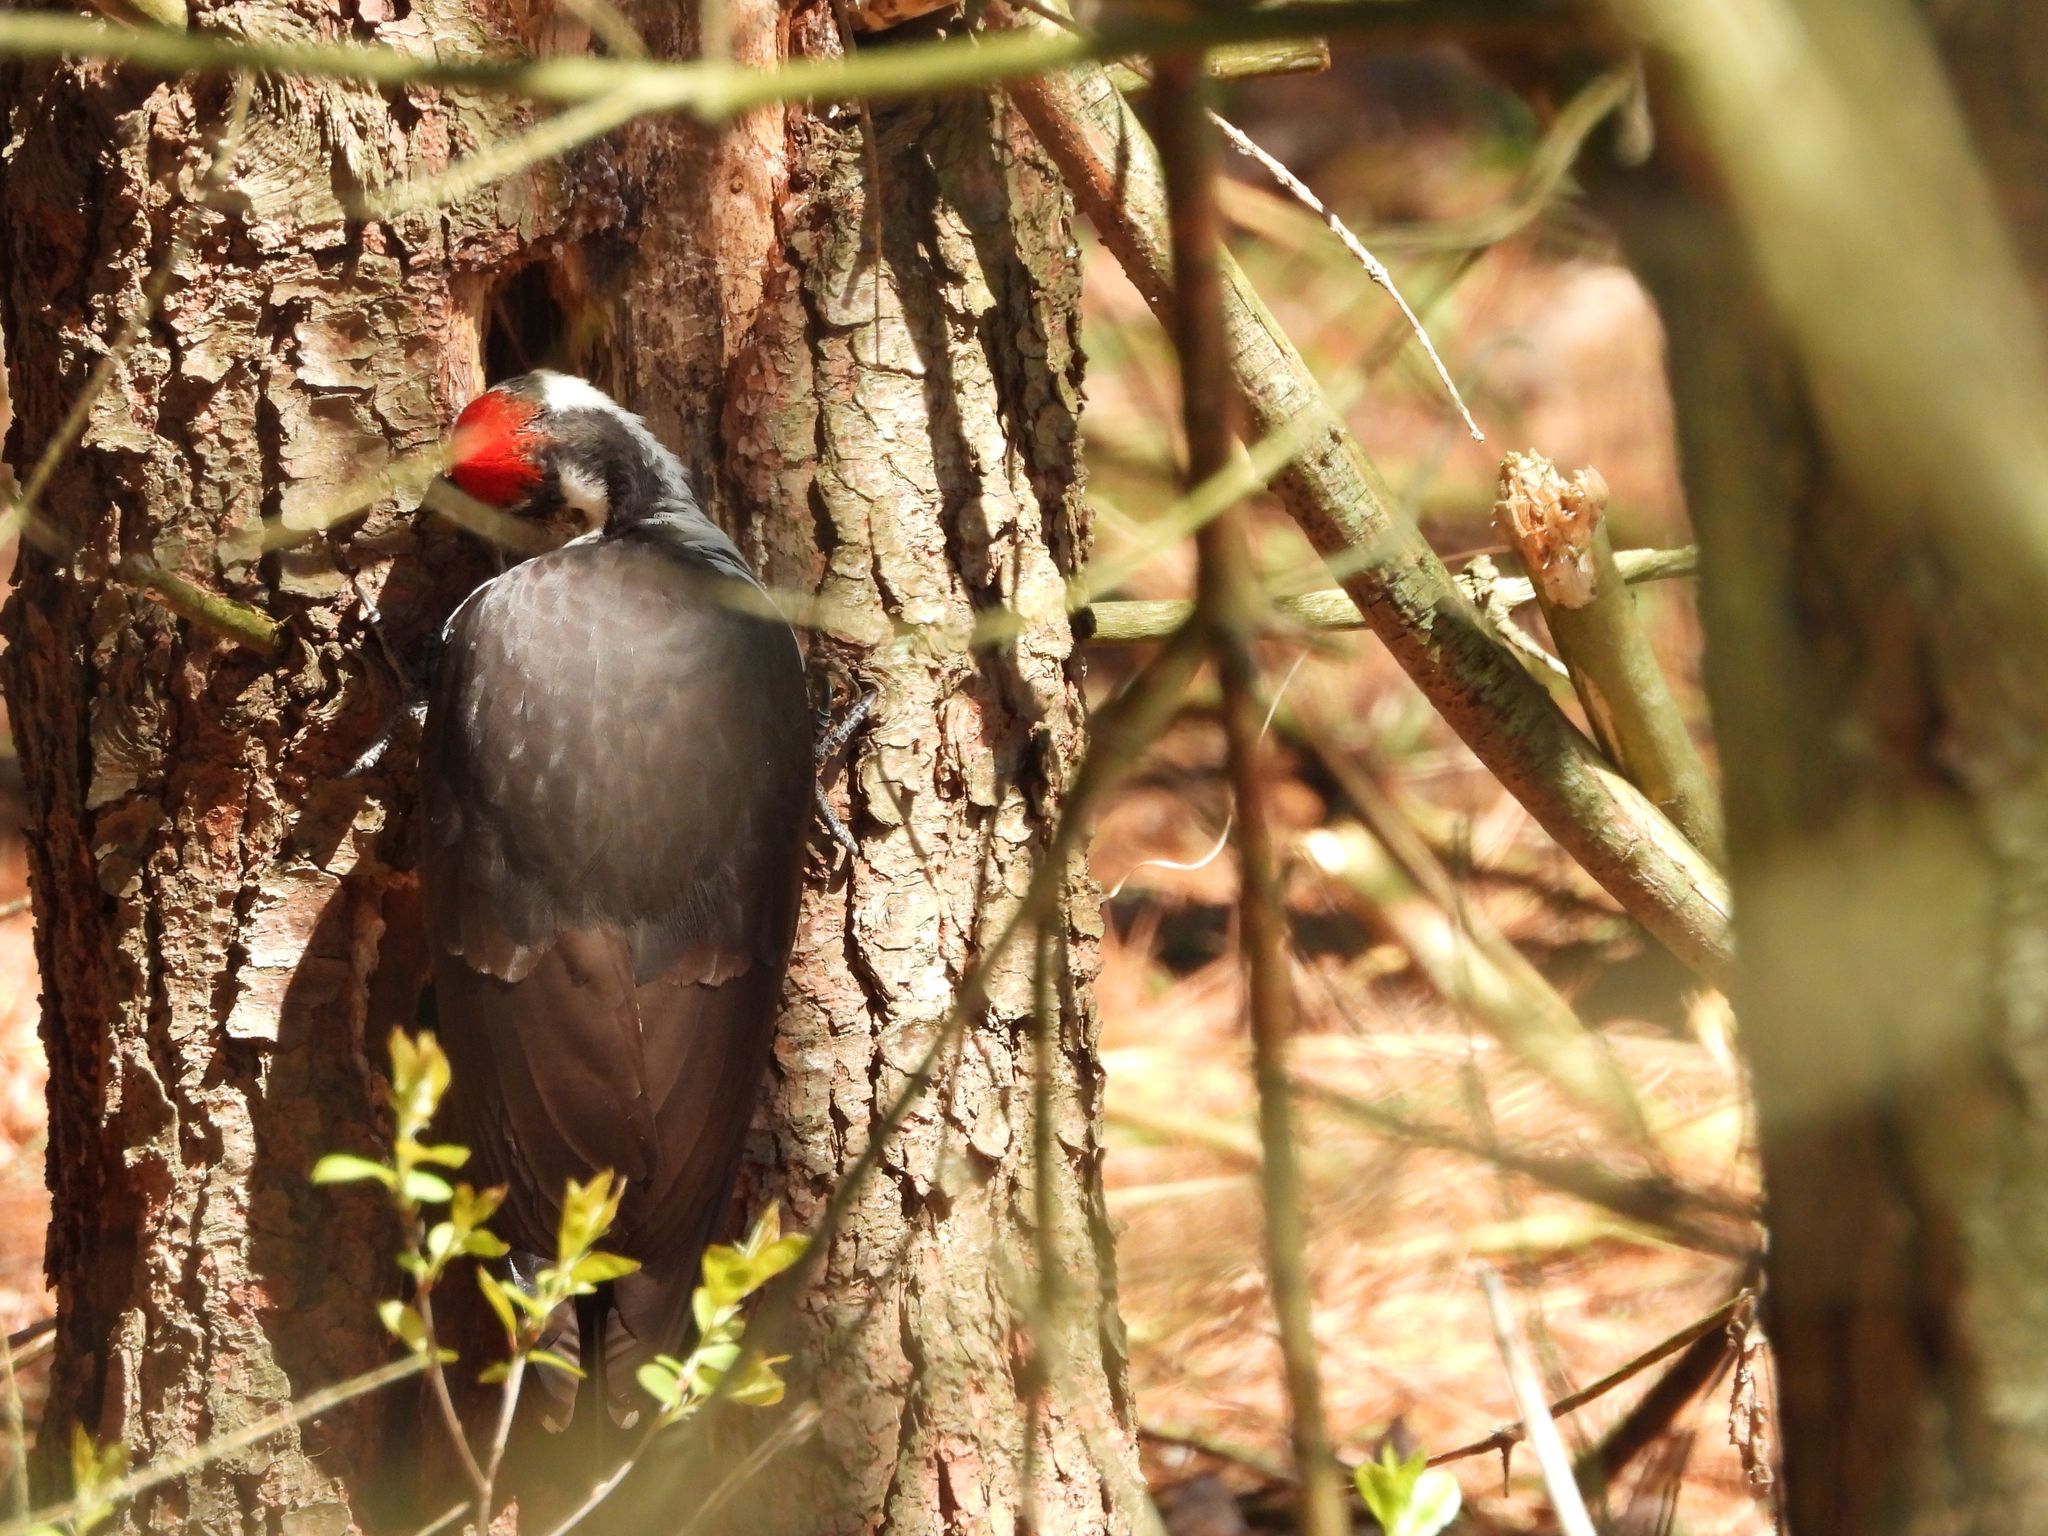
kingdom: Animalia
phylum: Chordata
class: Aves
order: Piciformes
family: Picidae
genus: Dryocopus
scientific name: Dryocopus pileatus
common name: Pileated woodpecker
